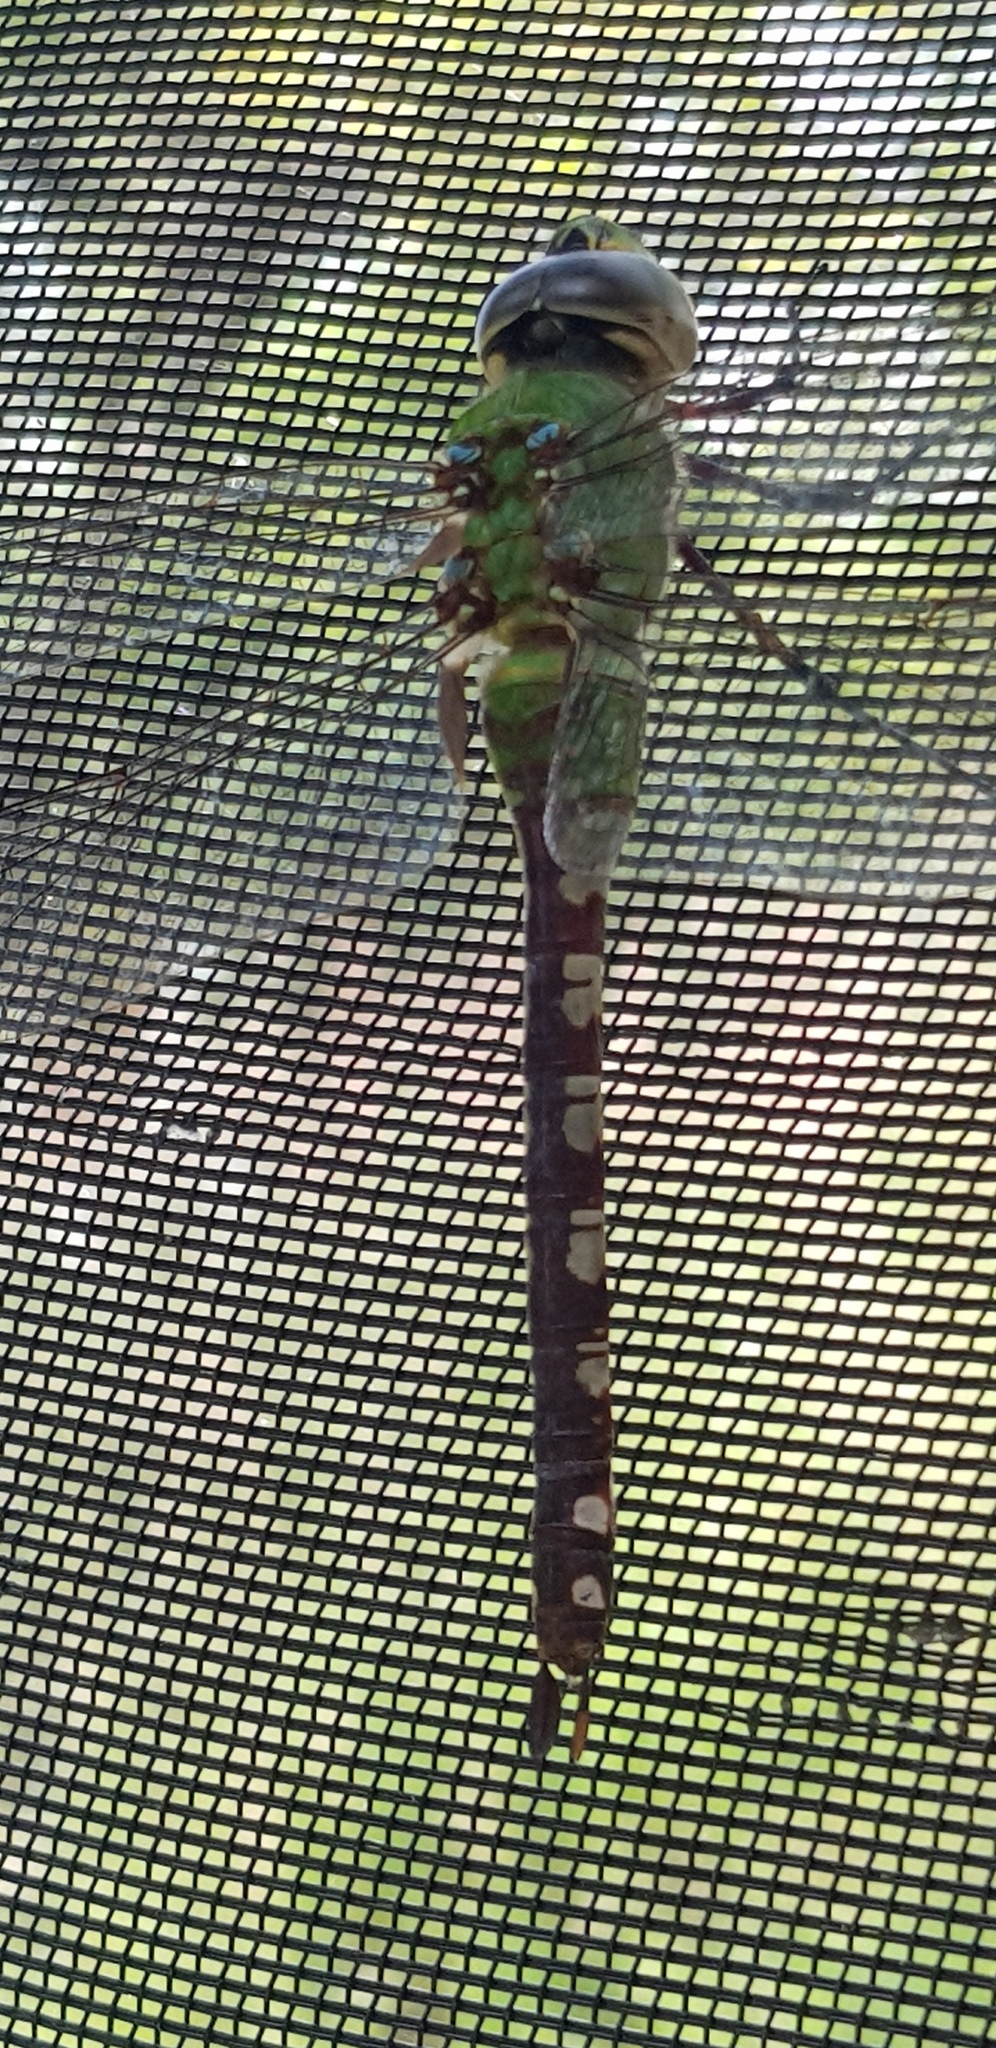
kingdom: Animalia
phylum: Arthropoda
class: Insecta
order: Odonata
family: Aeshnidae
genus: Anax
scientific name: Anax amazili
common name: Amazon darner
